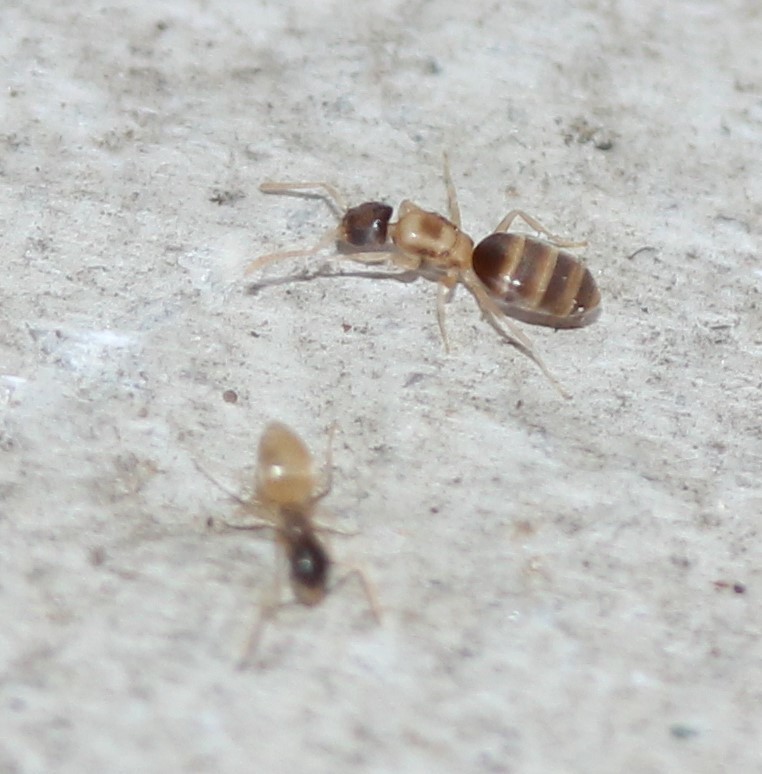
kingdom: Animalia
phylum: Arthropoda
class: Insecta
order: Hymenoptera
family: Formicidae
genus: Tapinoma
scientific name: Tapinoma melanocephalum
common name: Ghost ant
